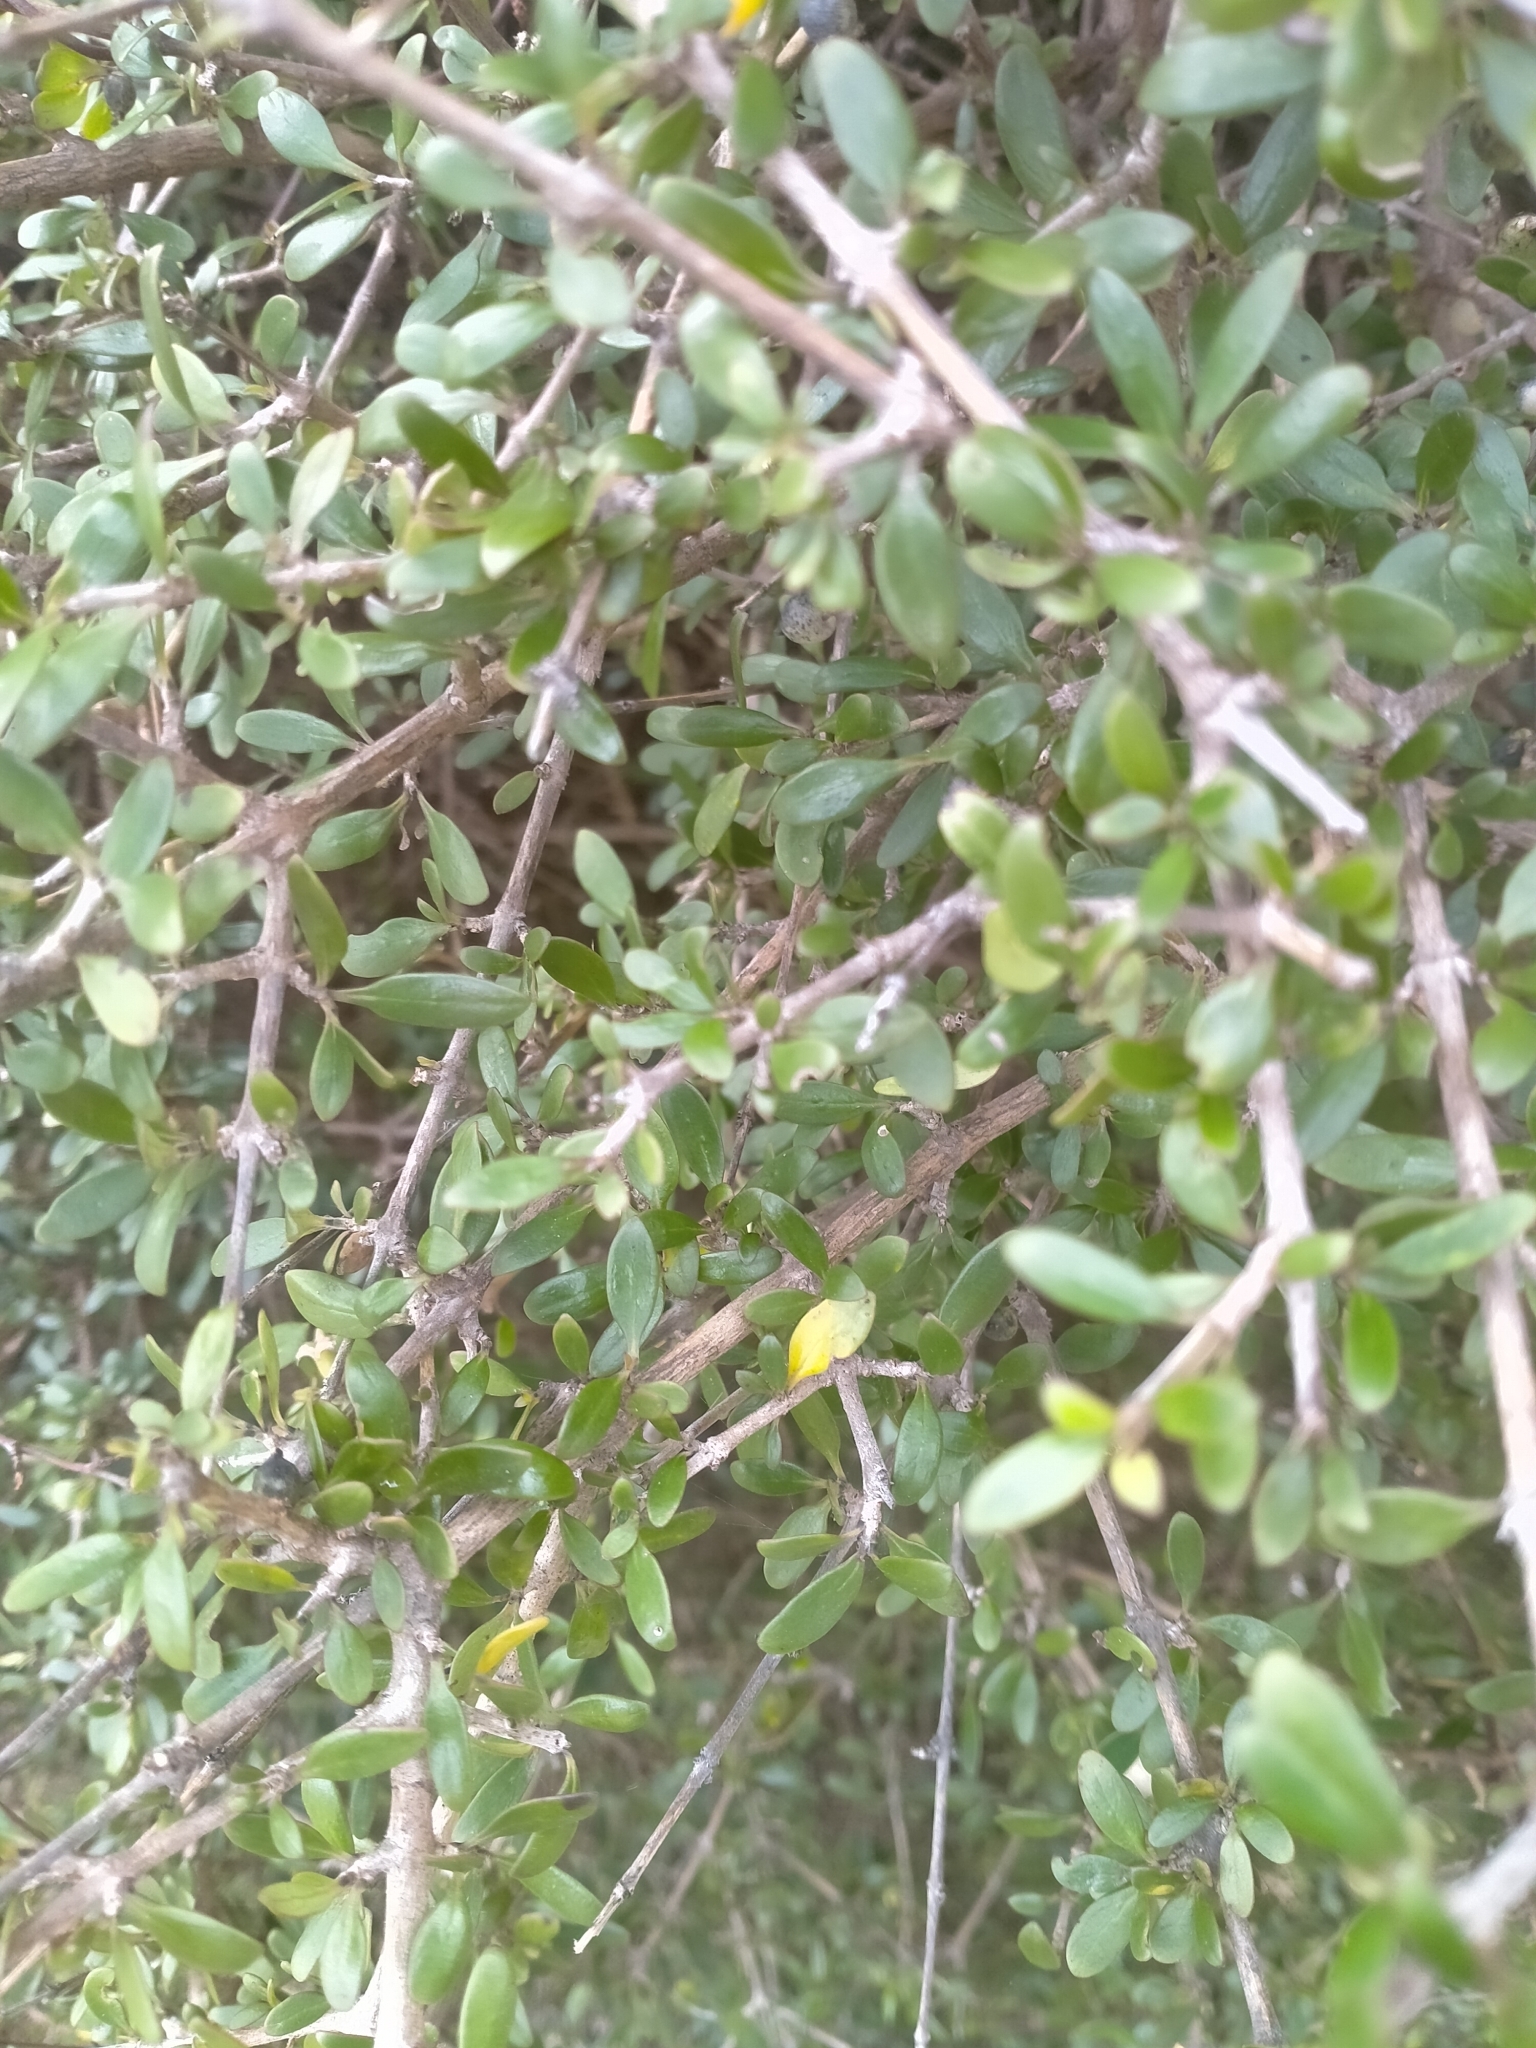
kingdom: Plantae
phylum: Tracheophyta
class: Magnoliopsida
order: Gentianales
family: Rubiaceae
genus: Coprosma
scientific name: Coprosma propinqua
